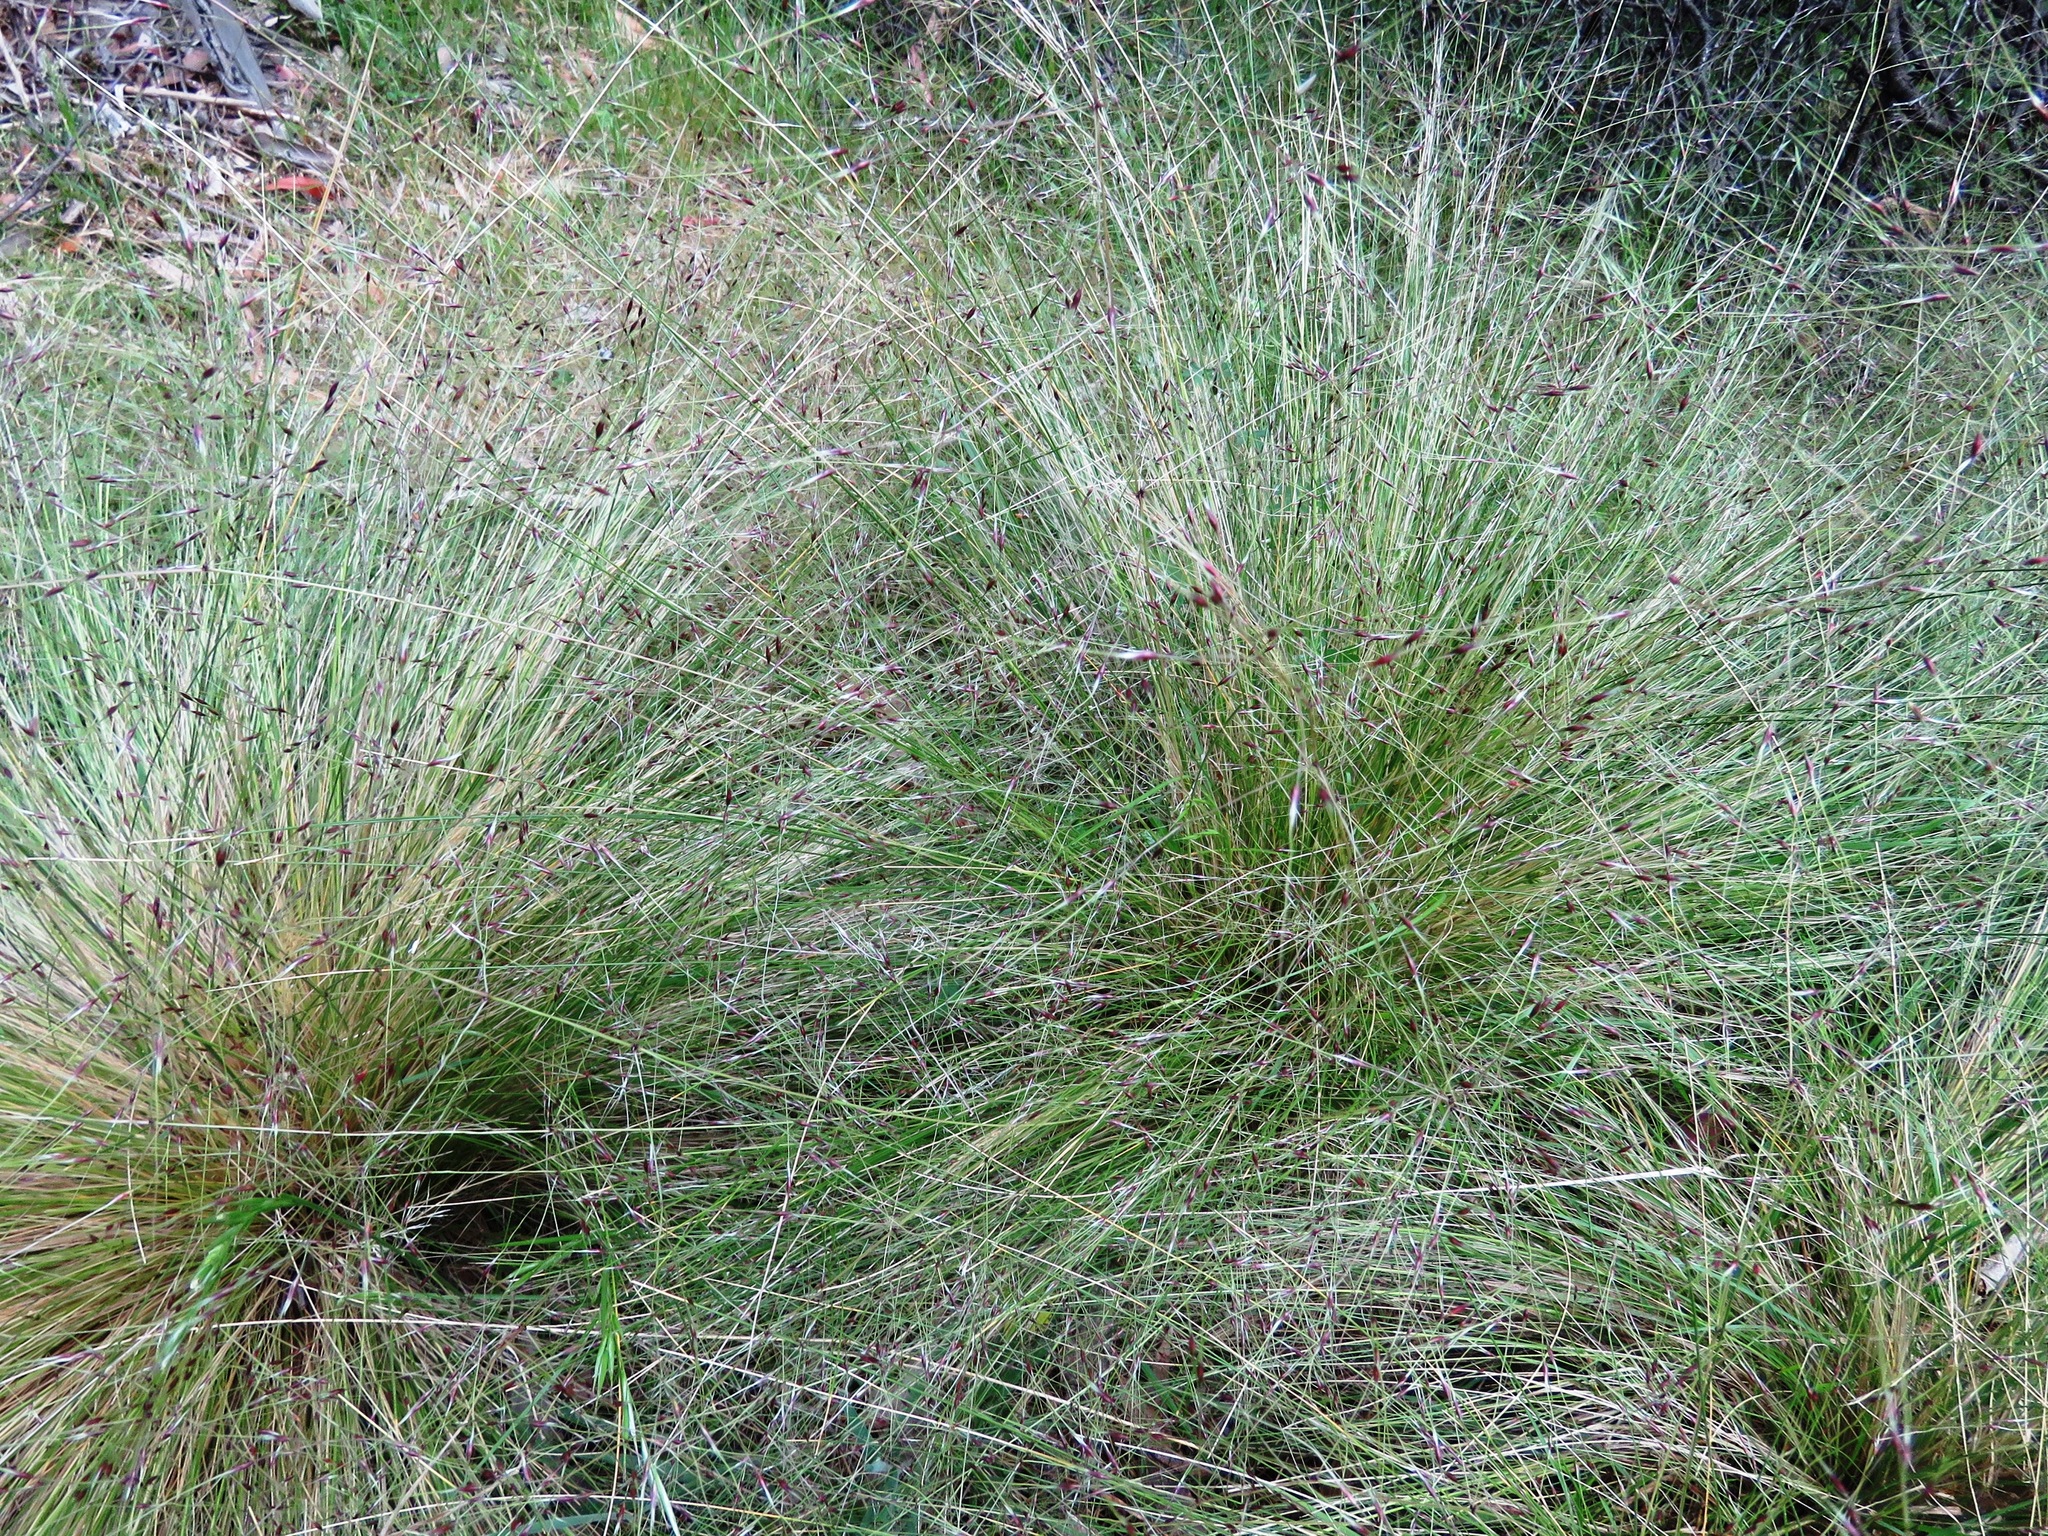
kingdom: Plantae
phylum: Tracheophyta
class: Liliopsida
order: Poales
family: Poaceae
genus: Nassella
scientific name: Nassella trichotoma
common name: Serrated tussock grass
